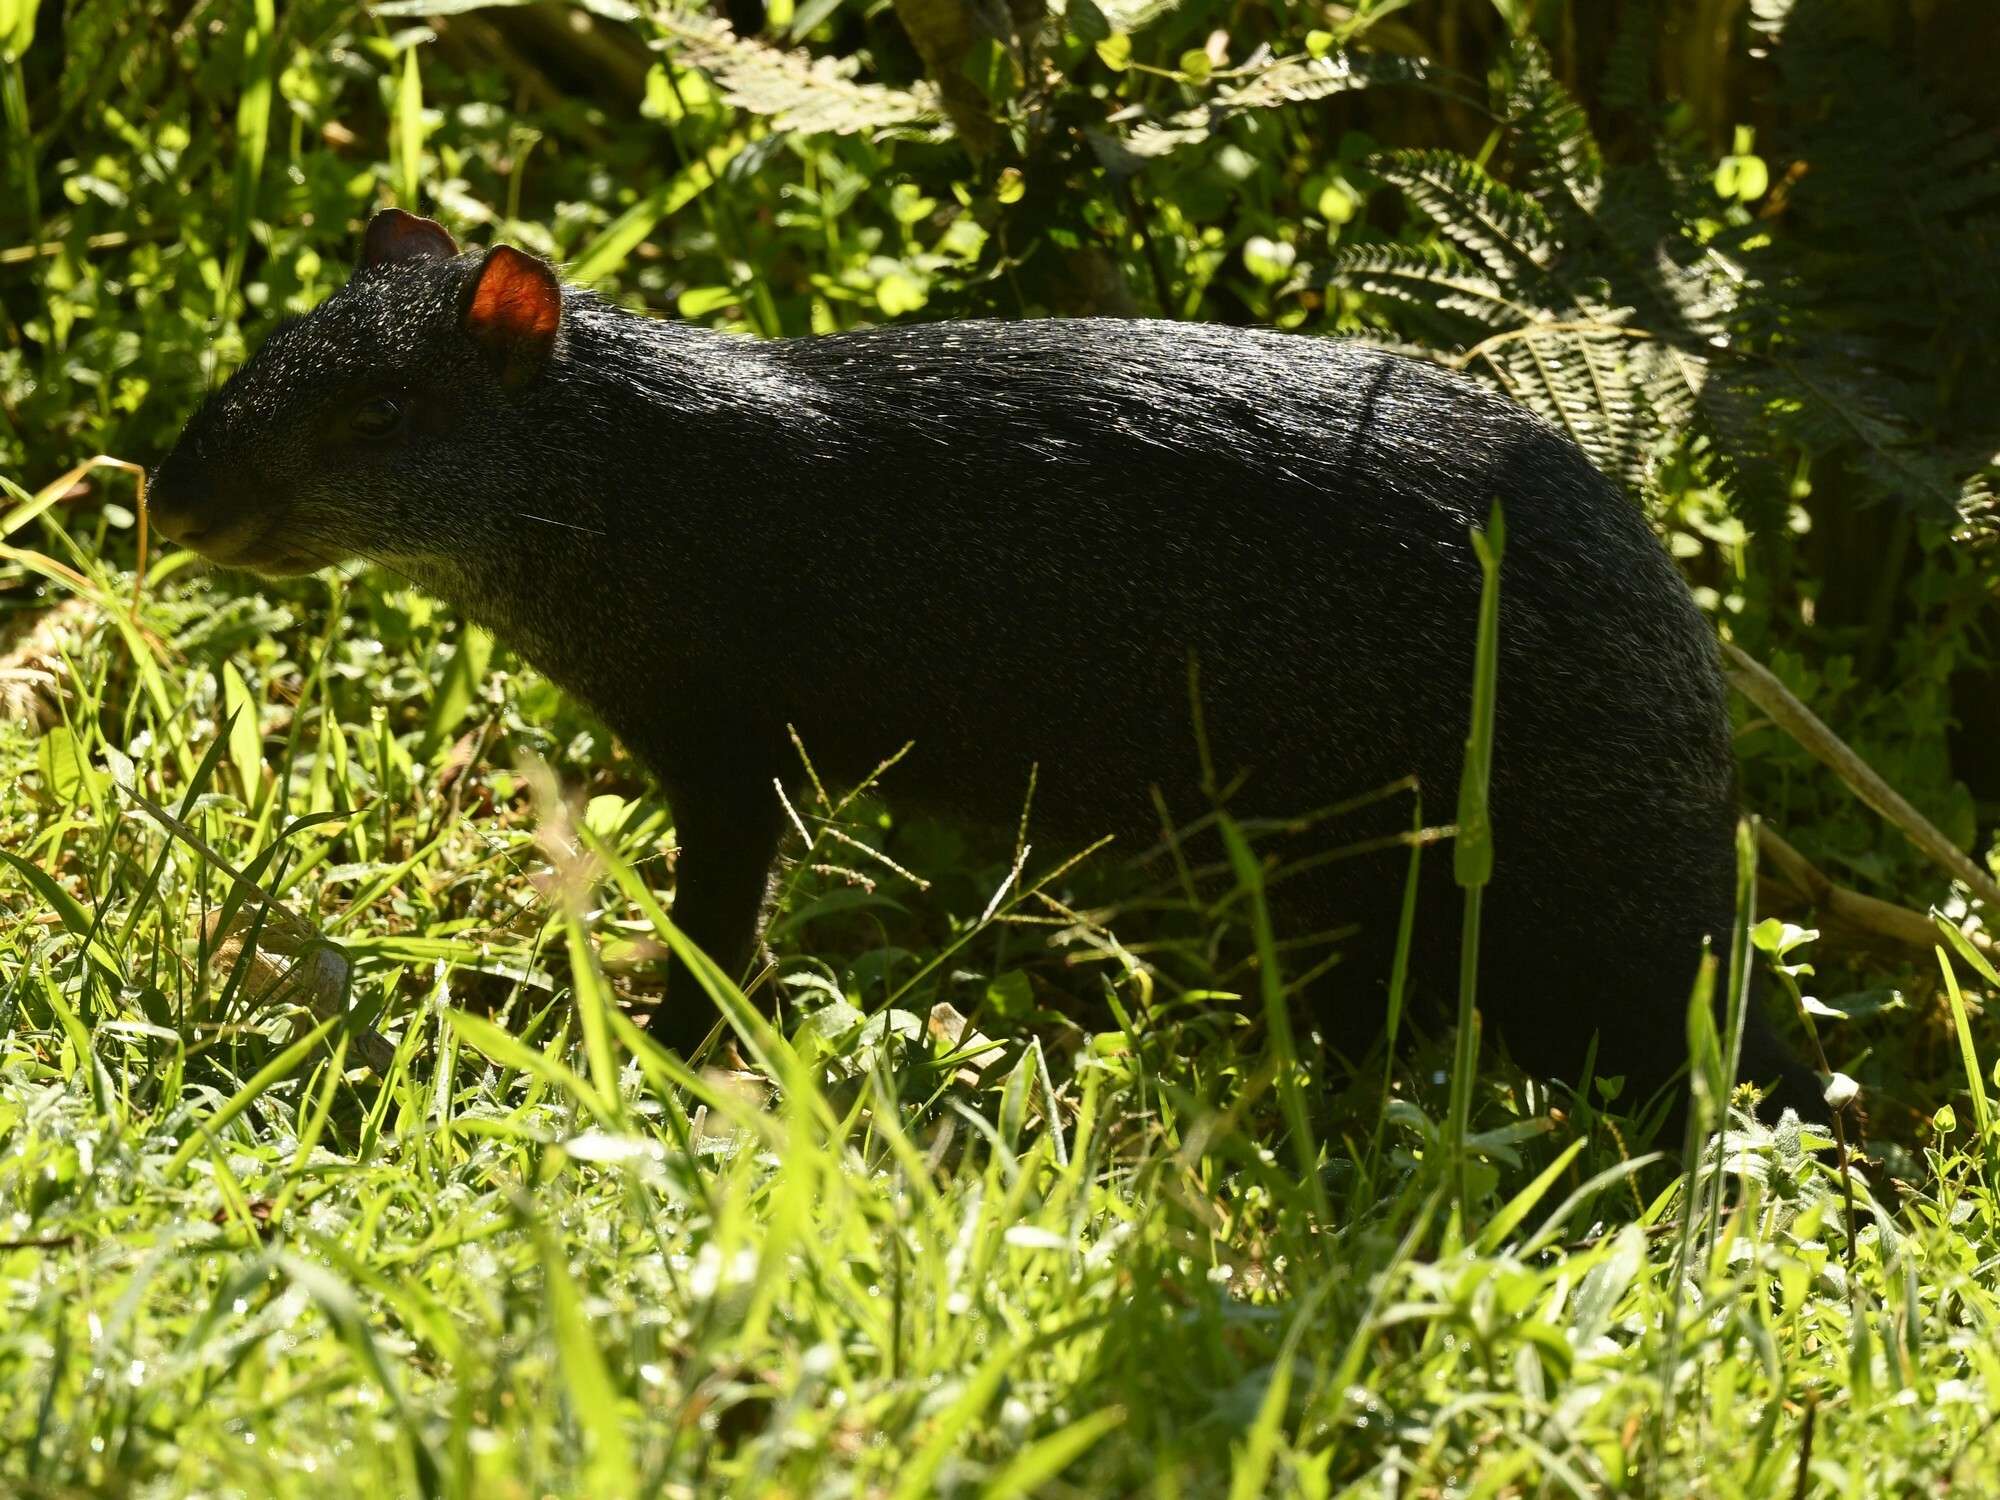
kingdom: Animalia
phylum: Chordata
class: Mammalia
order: Rodentia
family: Dasyproctidae
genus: Dasyprocta
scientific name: Dasyprocta fuliginosa
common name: Black agouti
